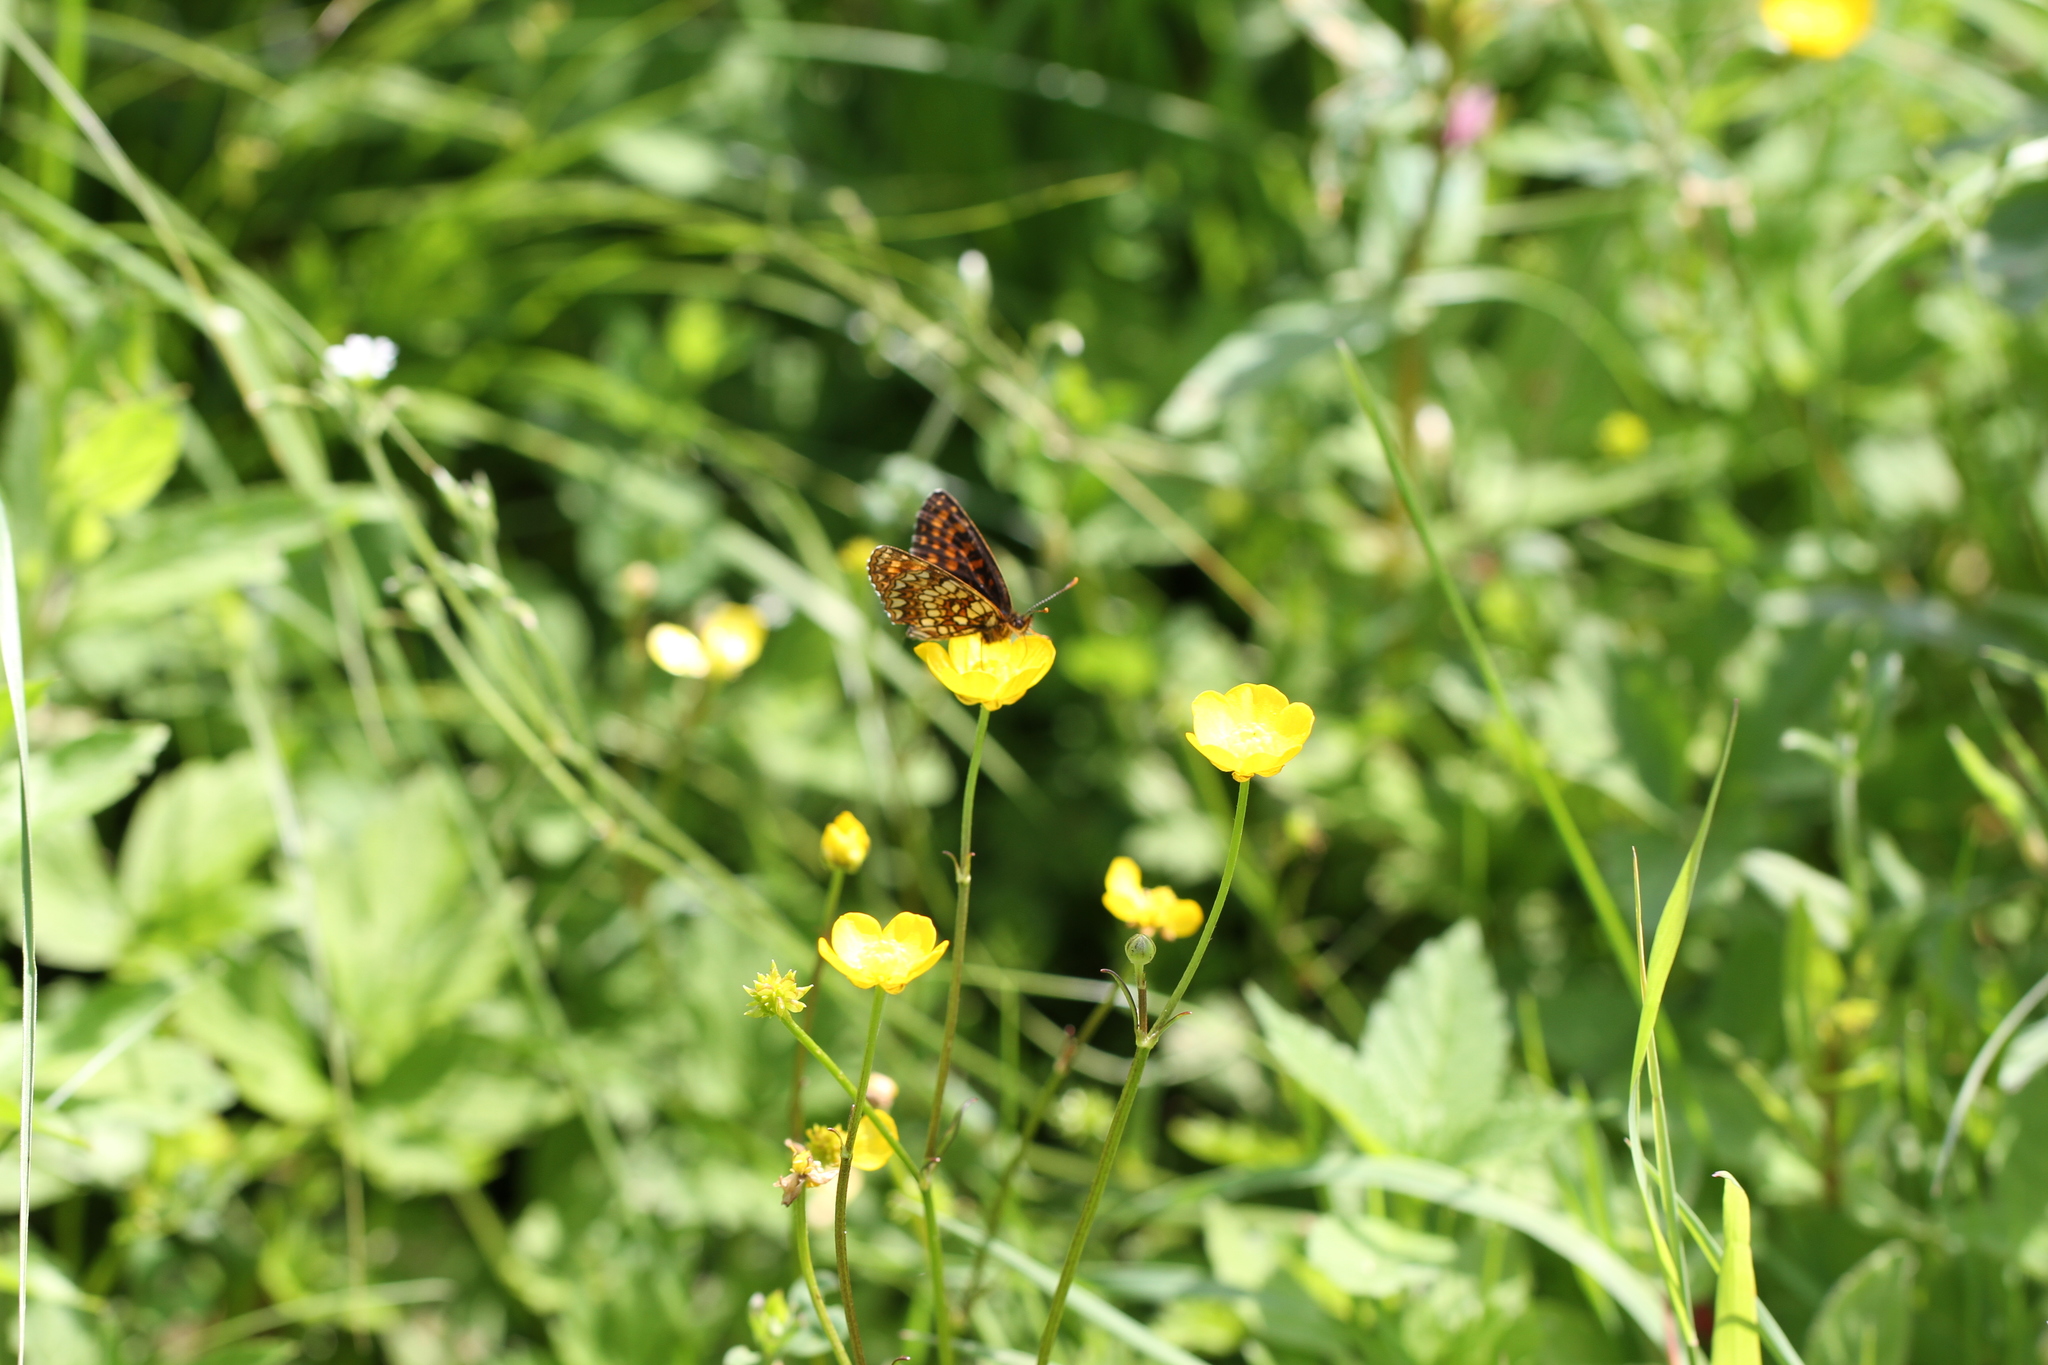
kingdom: Animalia
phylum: Arthropoda
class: Insecta
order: Lepidoptera
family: Nymphalidae
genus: Melitaea
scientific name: Melitaea diamina
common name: False heath fritillary
